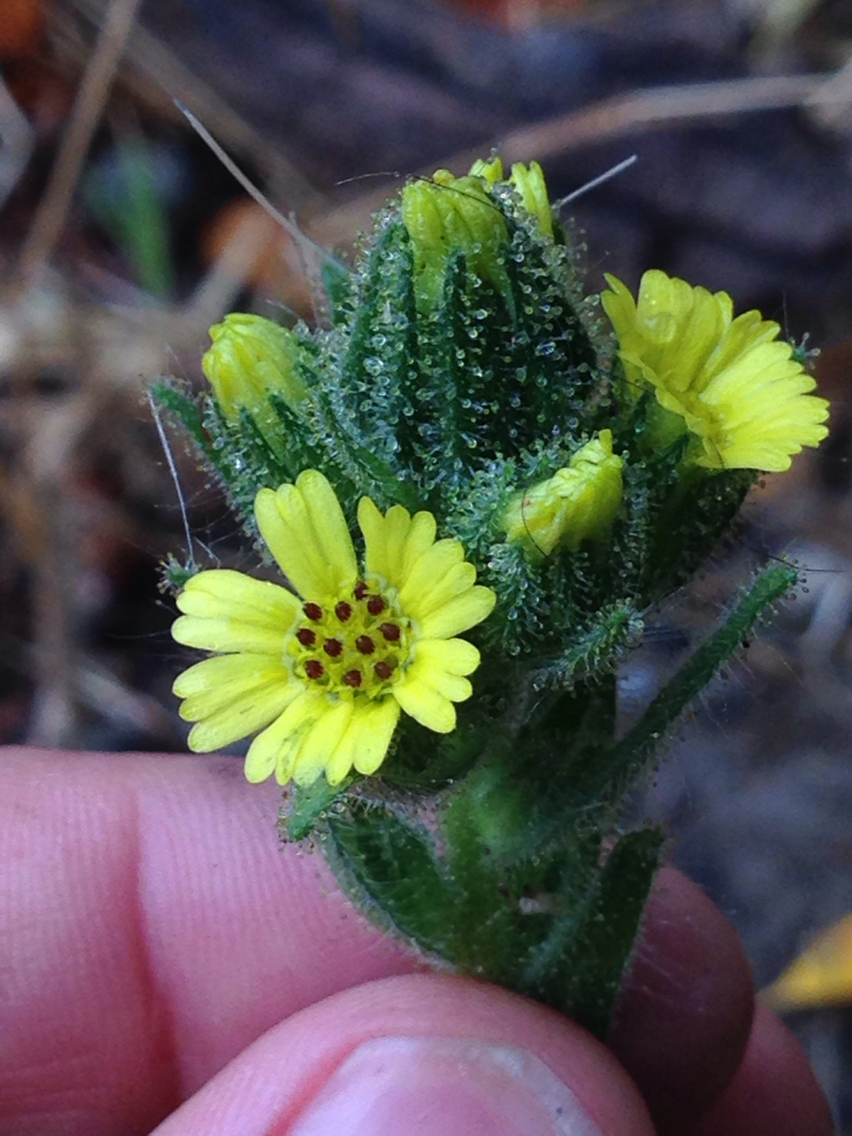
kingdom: Plantae
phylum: Tracheophyta
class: Magnoliopsida
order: Asterales
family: Asteraceae
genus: Madia
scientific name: Madia sativa
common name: Coast tarweed
